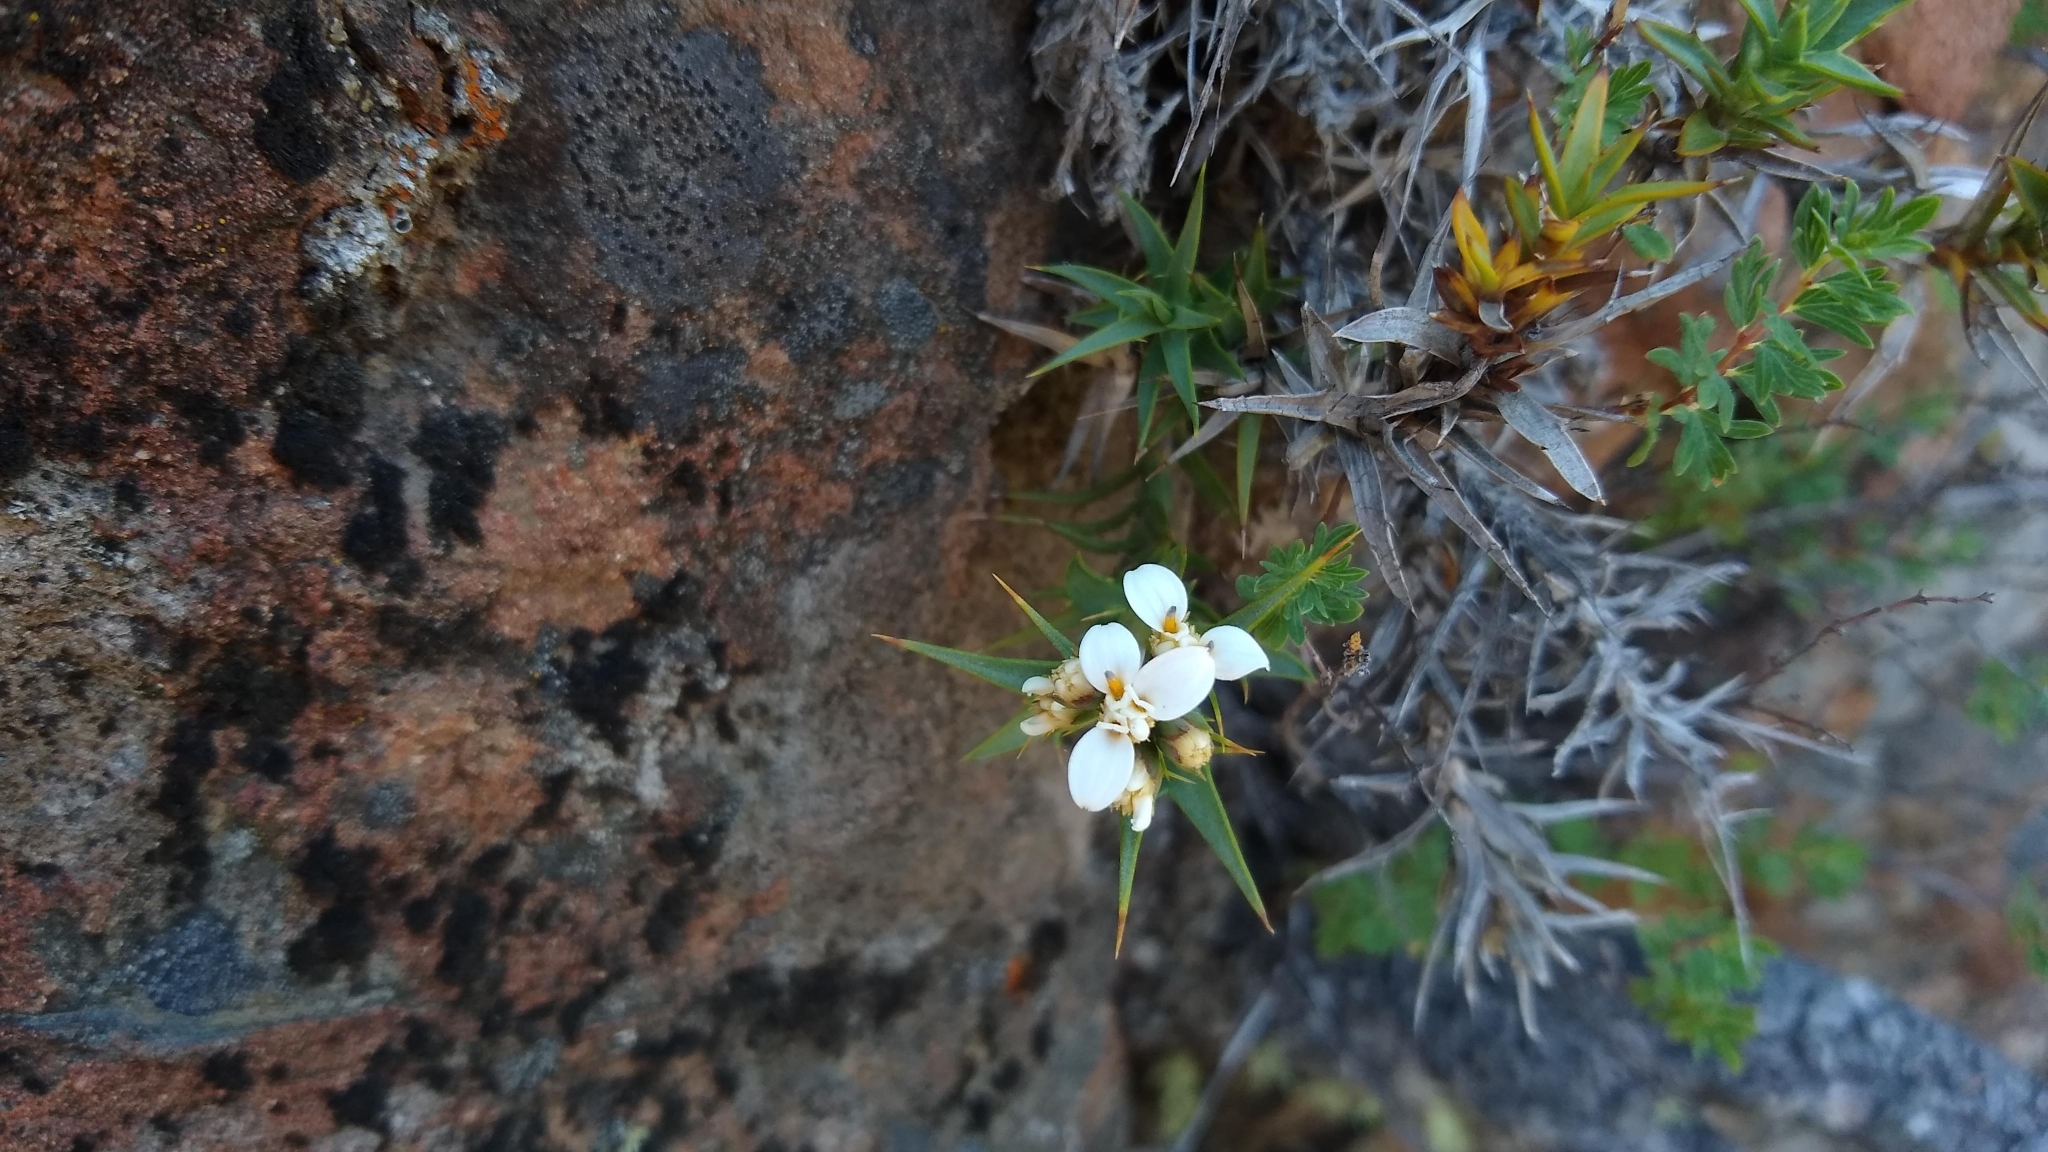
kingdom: Plantae
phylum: Tracheophyta
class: Magnoliopsida
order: Asterales
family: Asteraceae
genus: Nassauvia
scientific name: Nassauvia aculeata
